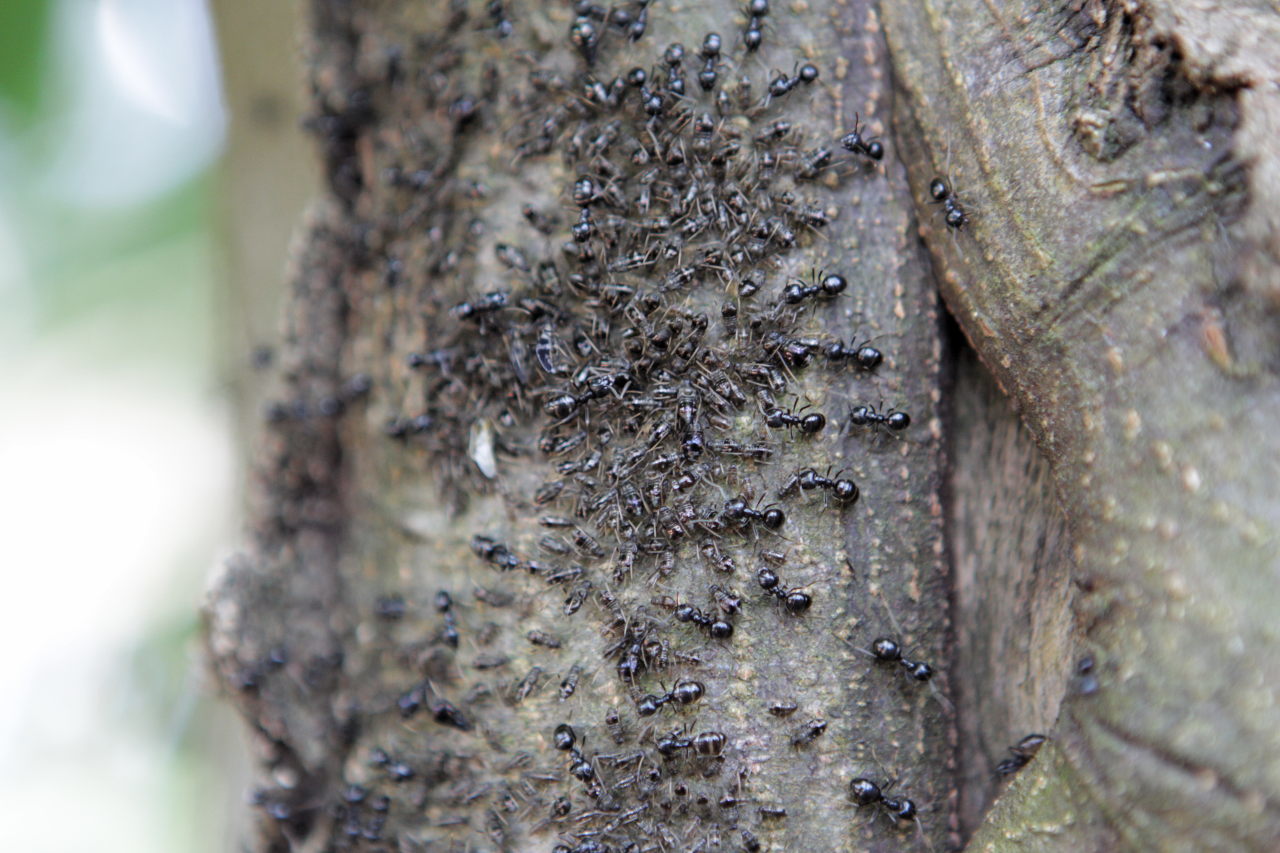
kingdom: Animalia
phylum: Arthropoda
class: Insecta
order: Hymenoptera
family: Formicidae
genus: Lasius
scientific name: Lasius fuliginosus
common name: Jet ant
